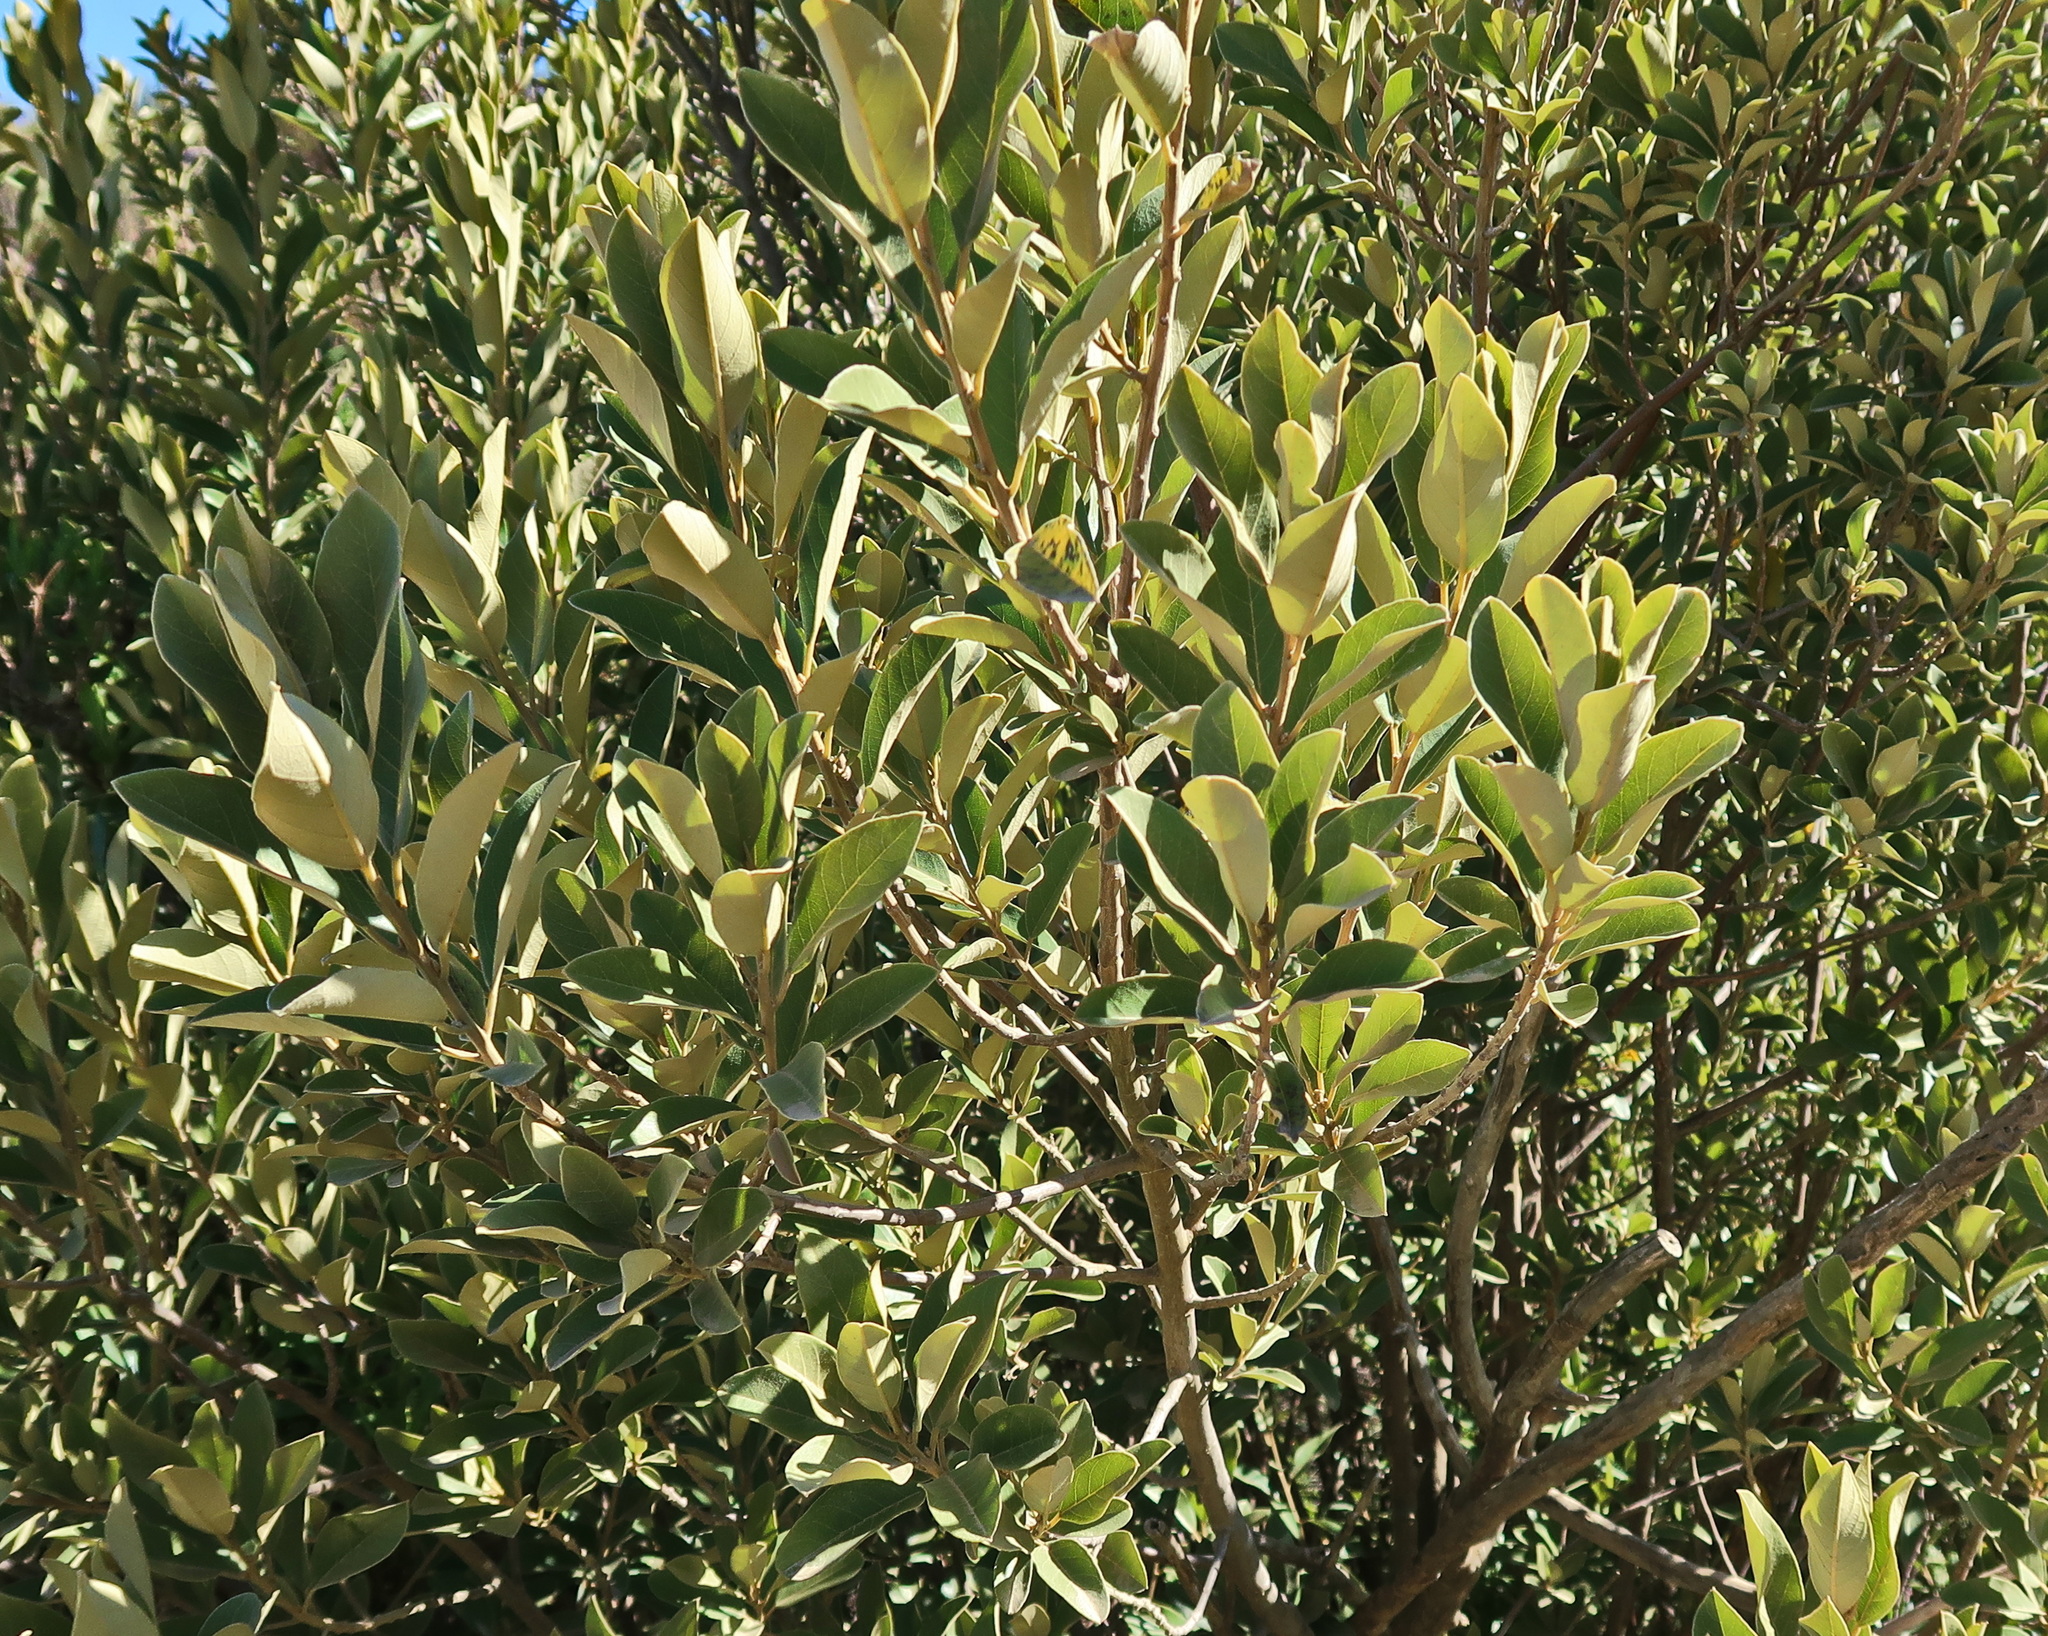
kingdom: Plantae
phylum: Tracheophyta
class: Magnoliopsida
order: Malpighiales
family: Achariaceae
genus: Kiggelaria
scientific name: Kiggelaria africana
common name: Wild peach
